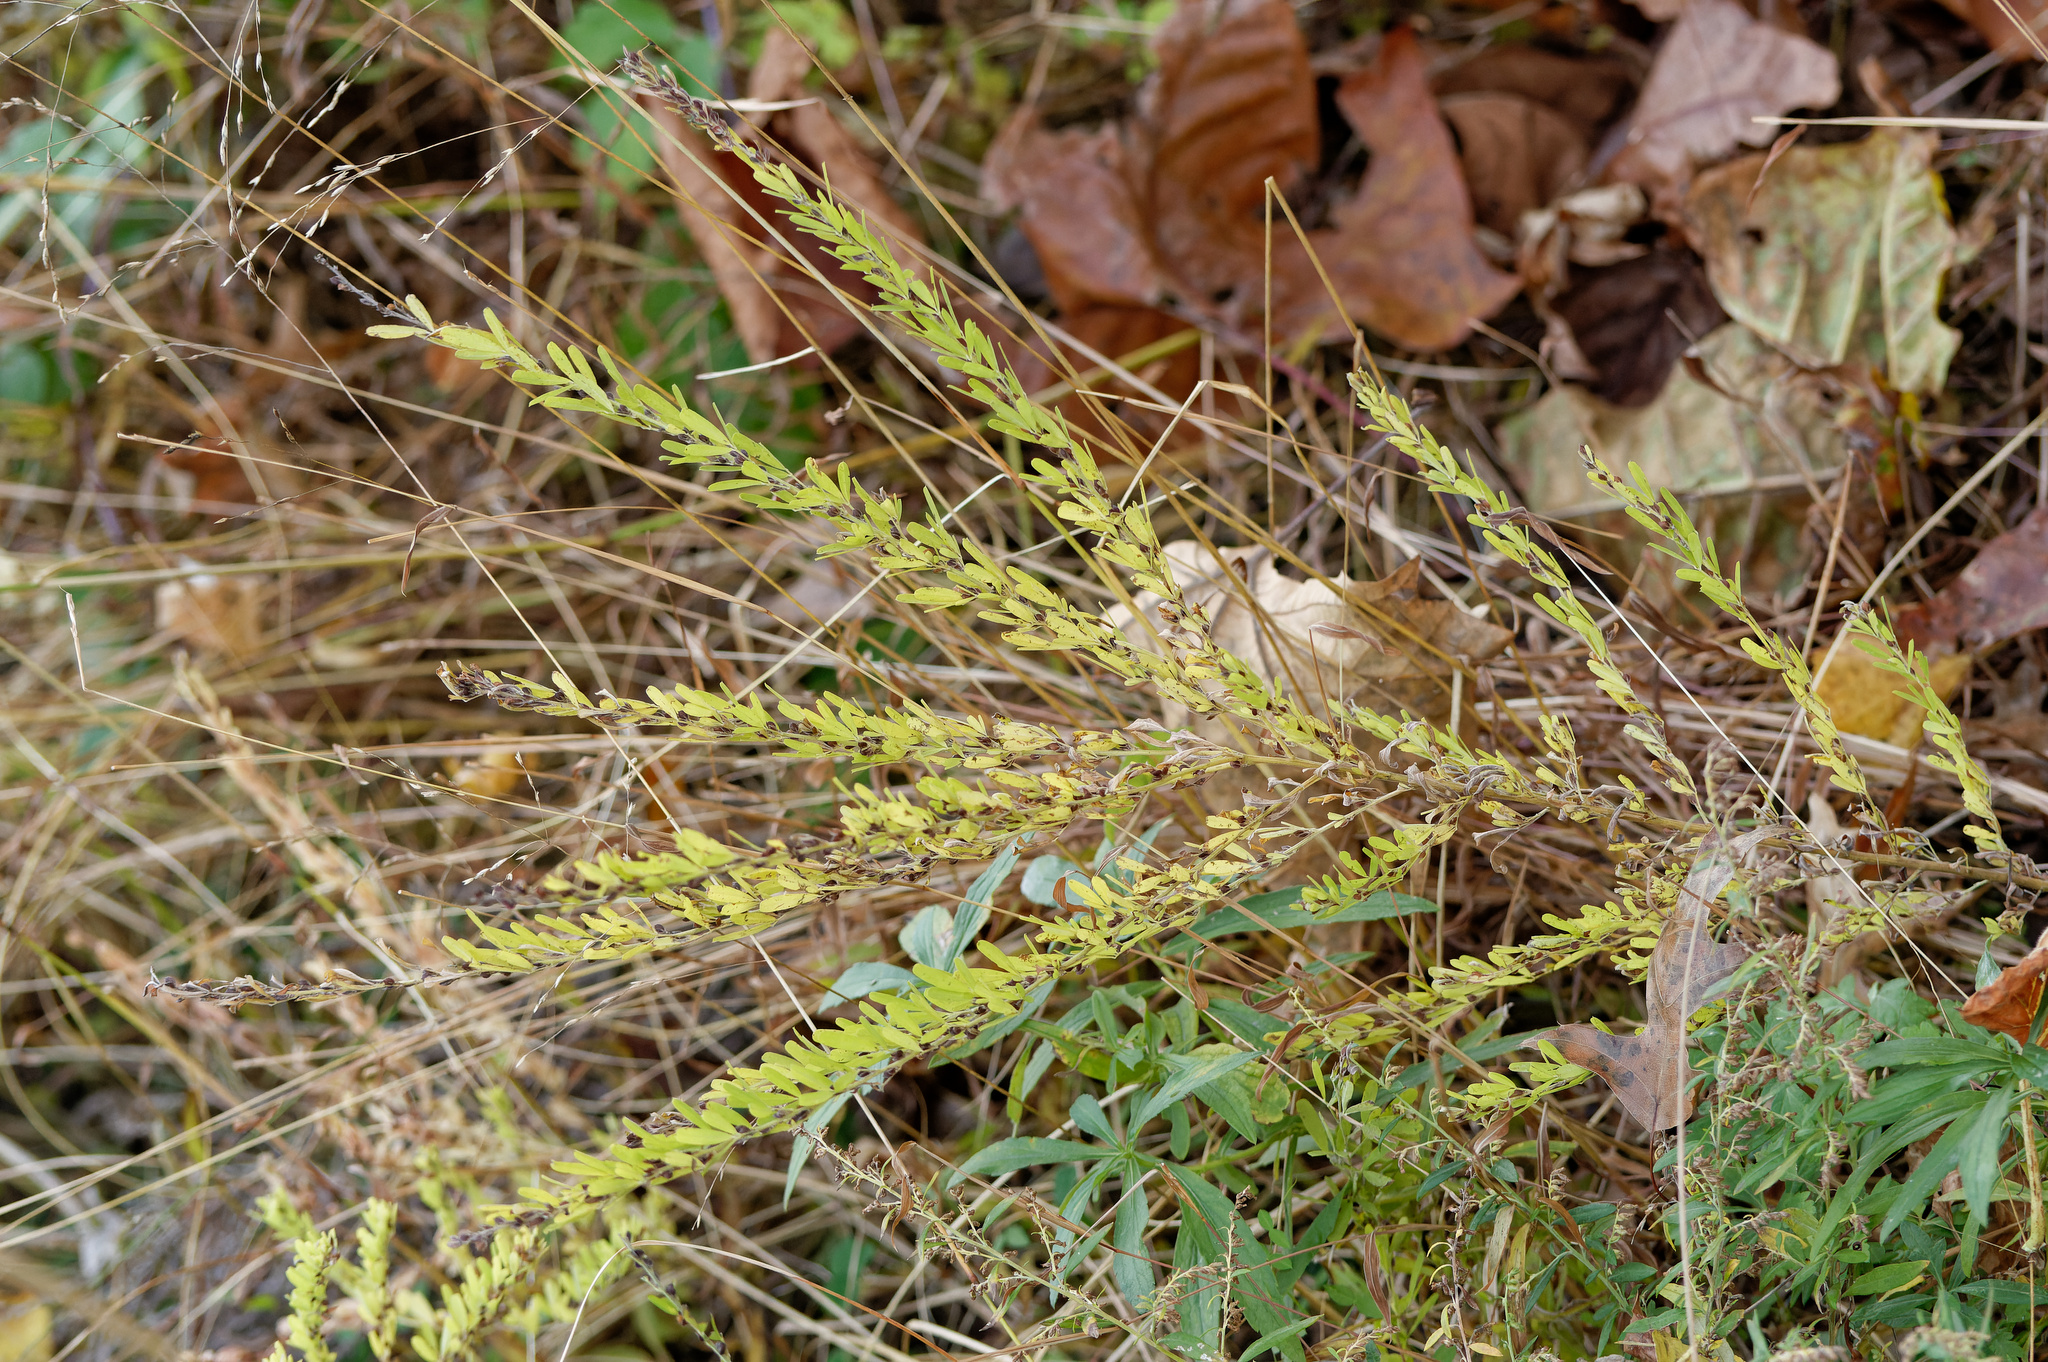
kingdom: Plantae
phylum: Tracheophyta
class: Magnoliopsida
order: Fabales
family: Fabaceae
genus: Lespedeza
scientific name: Lespedeza cuneata
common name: Chinese bush-clover
